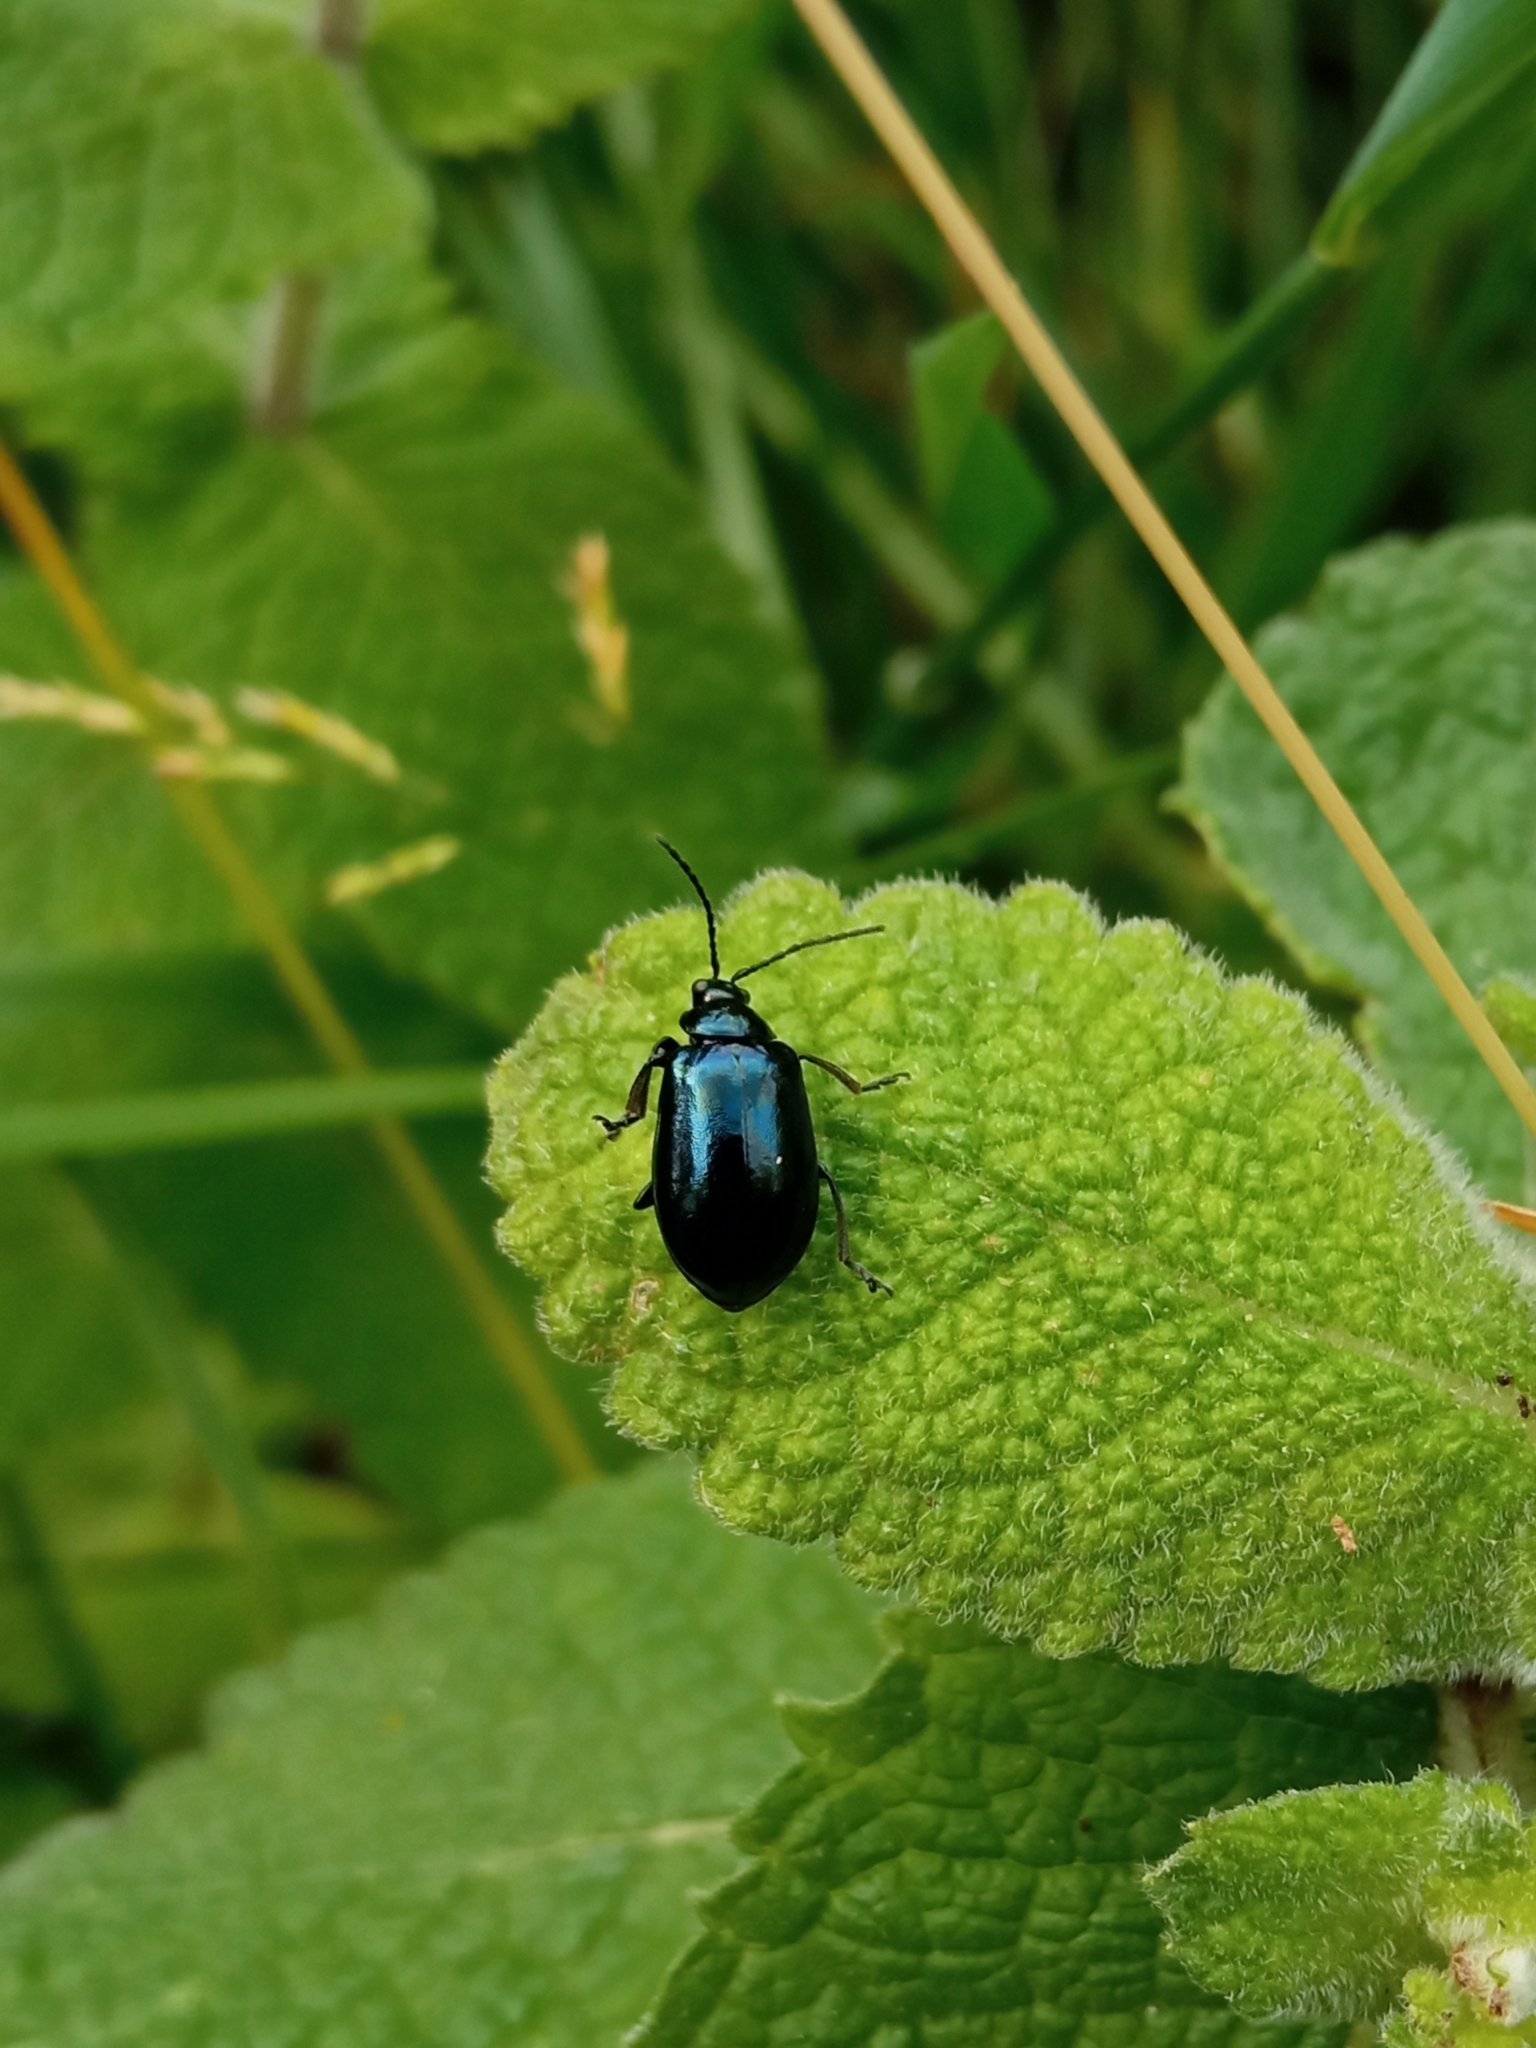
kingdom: Animalia
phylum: Arthropoda
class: Insecta
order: Coleoptera
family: Chrysomelidae
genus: Agelastica
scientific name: Agelastica alni
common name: Alder leaf beetle
